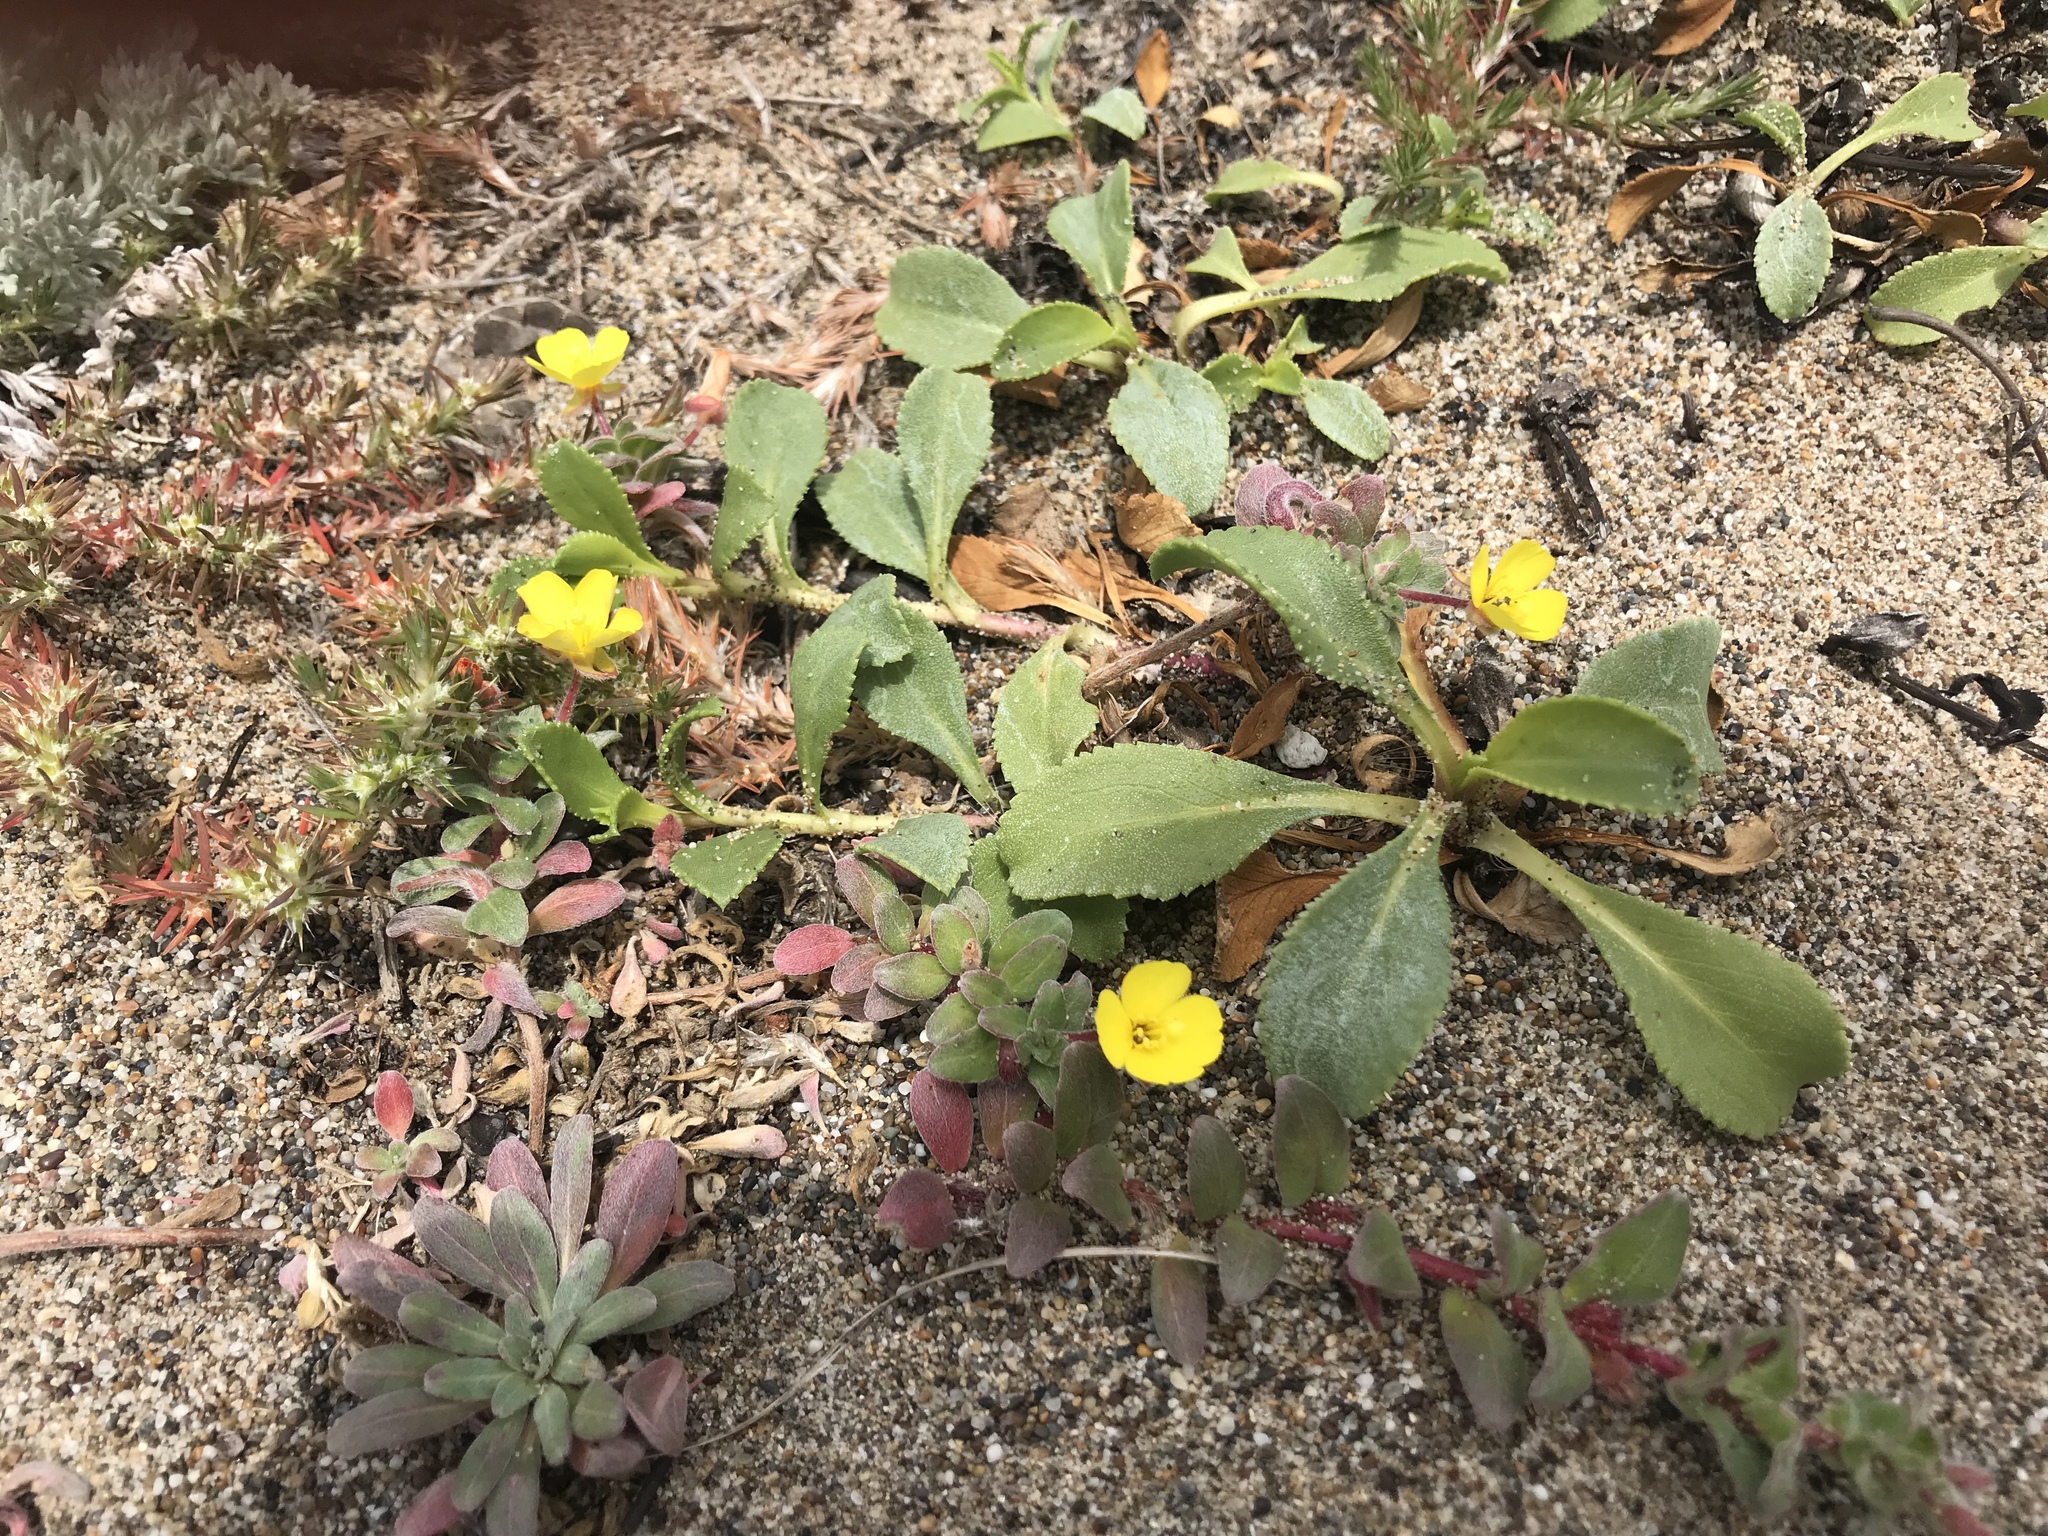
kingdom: Plantae
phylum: Tracheophyta
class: Magnoliopsida
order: Myrtales
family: Onagraceae
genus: Camissoniopsis
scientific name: Camissoniopsis cheiranthifolia
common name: Beach suncup
